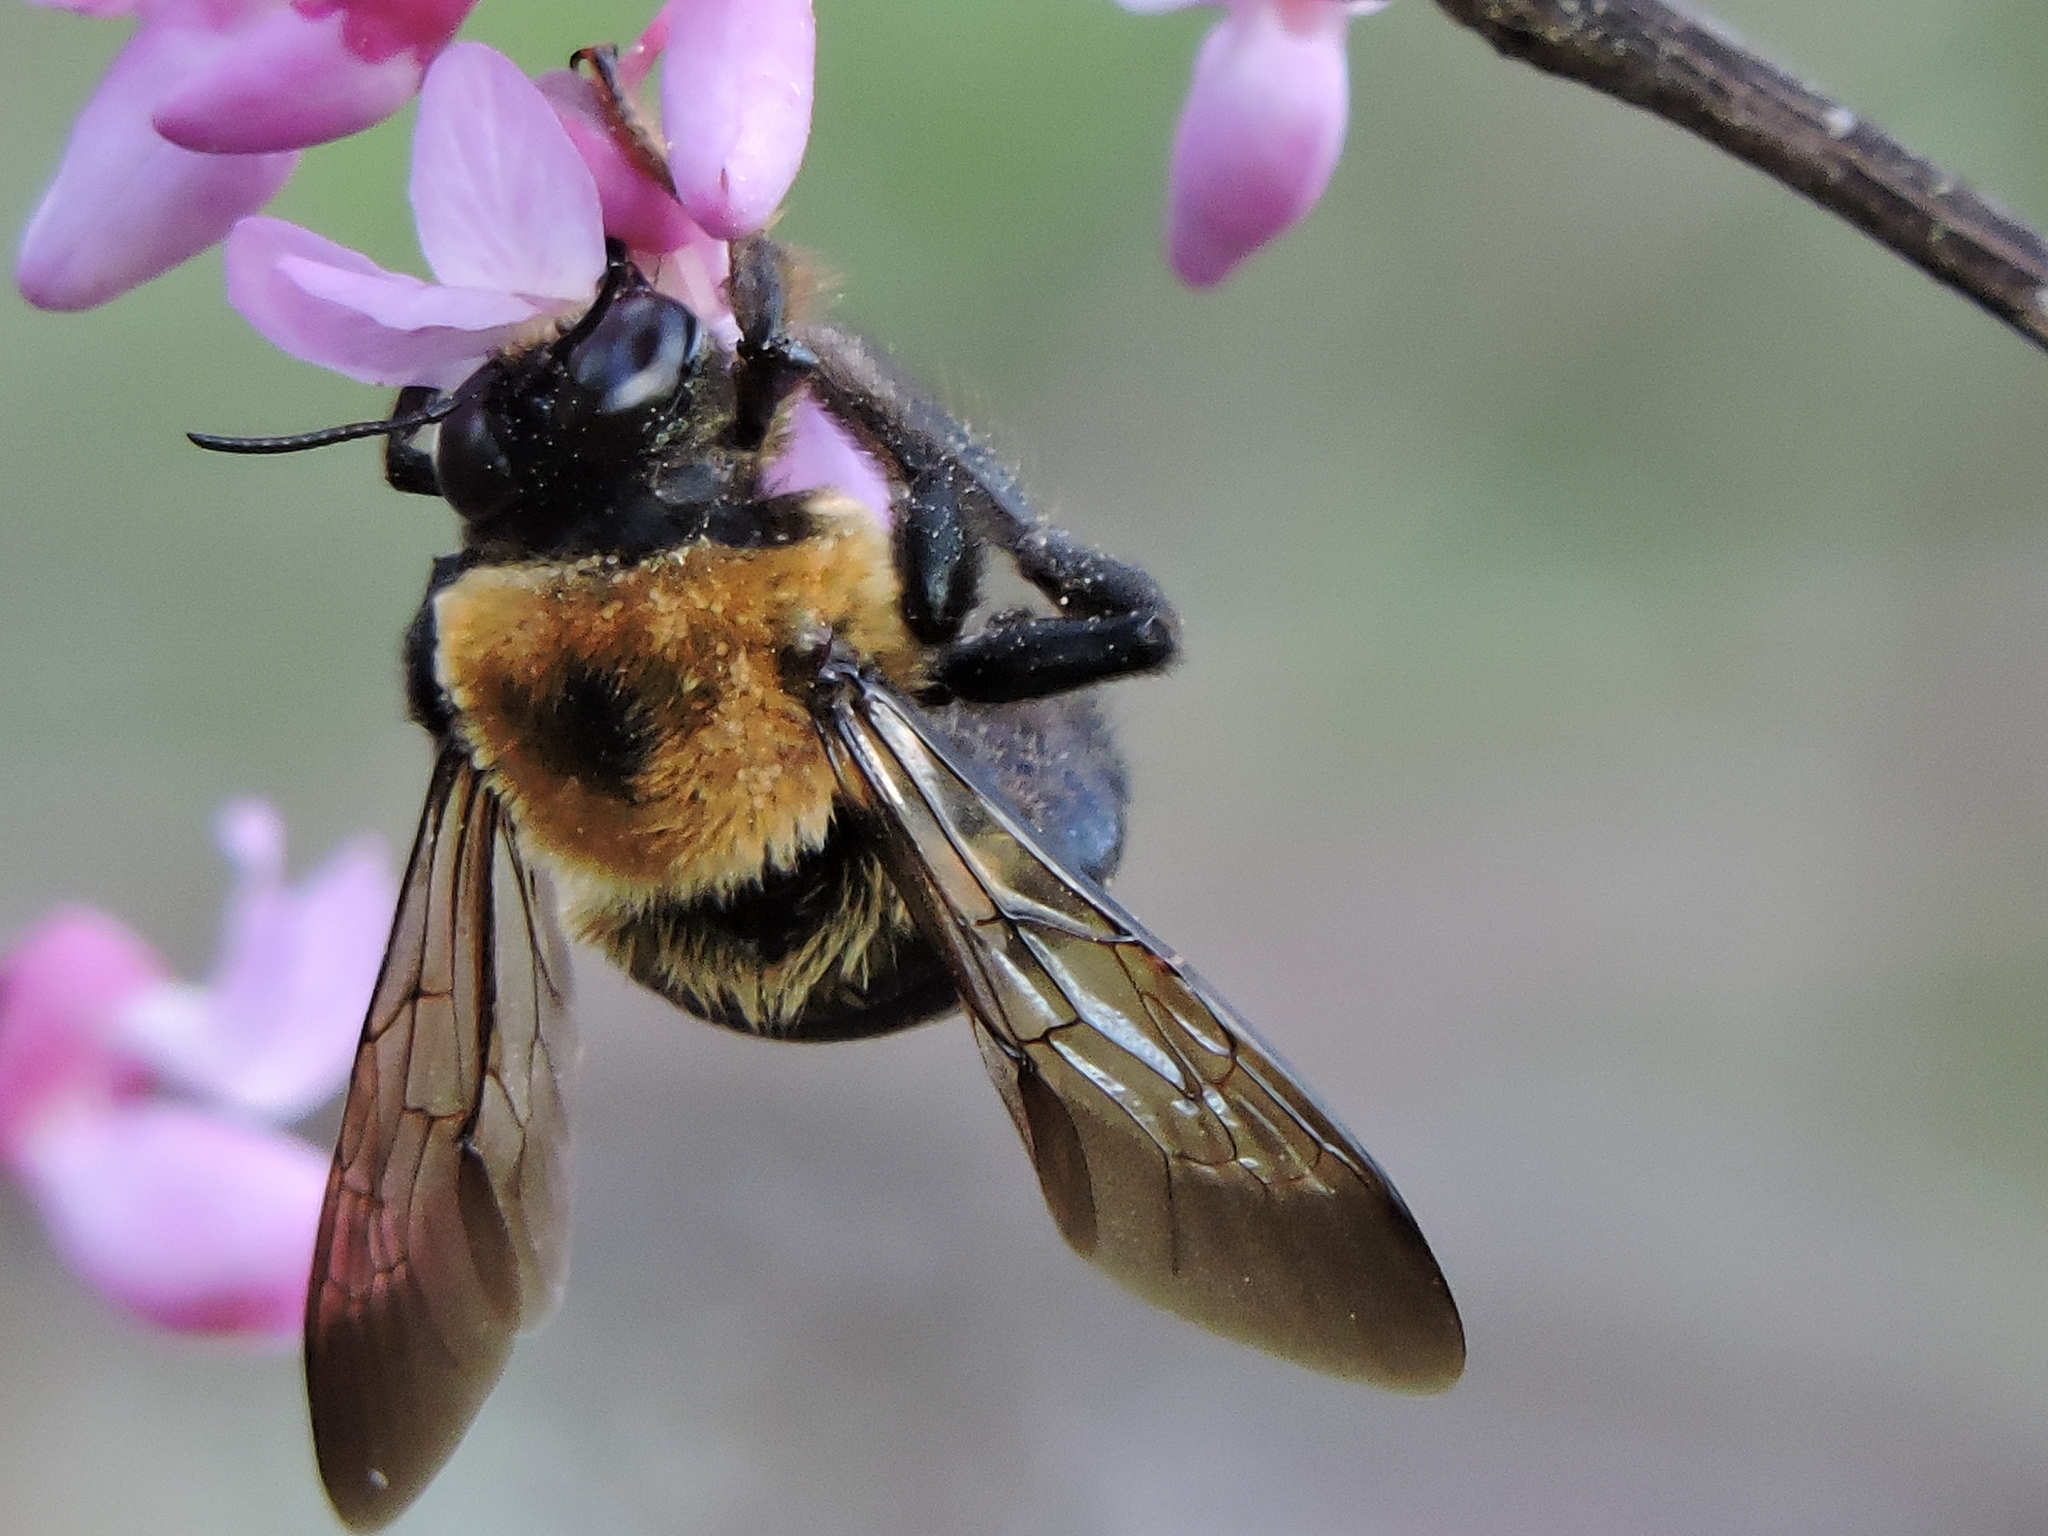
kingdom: Animalia
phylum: Arthropoda
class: Insecta
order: Hymenoptera
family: Apidae
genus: Xylocopa
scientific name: Xylocopa virginica
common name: Carpenter bee
